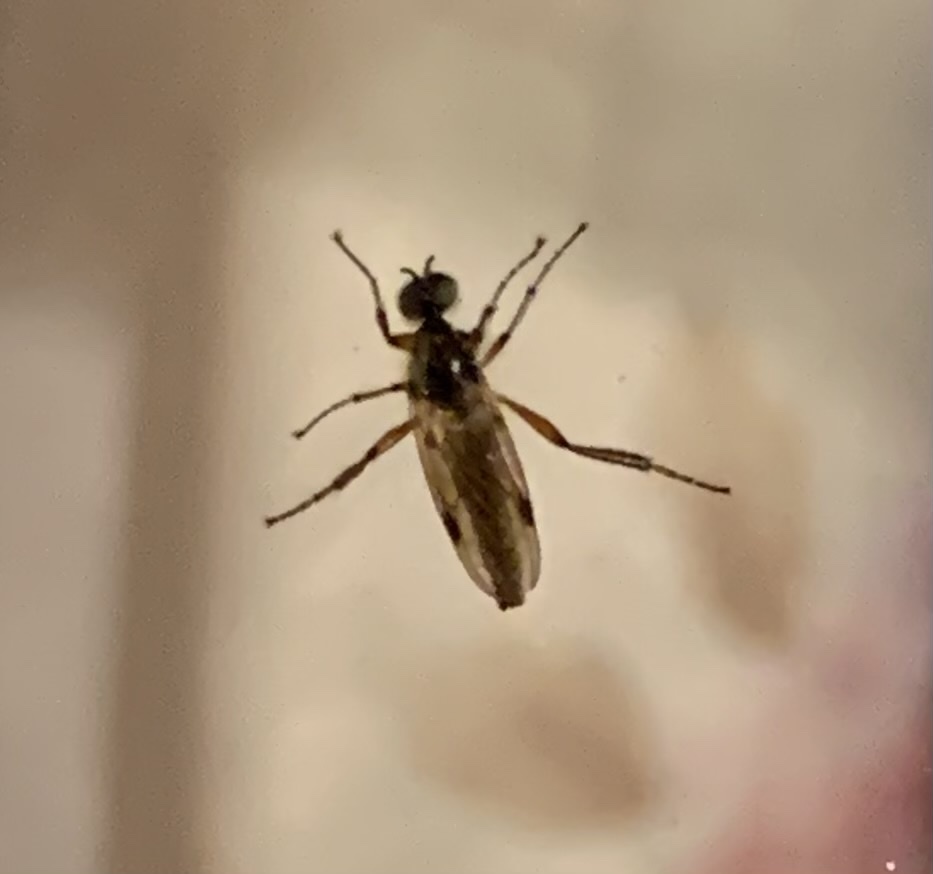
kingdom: Animalia
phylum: Arthropoda
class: Insecta
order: Diptera
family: Bibionidae
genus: Bibio
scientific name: Bibio
